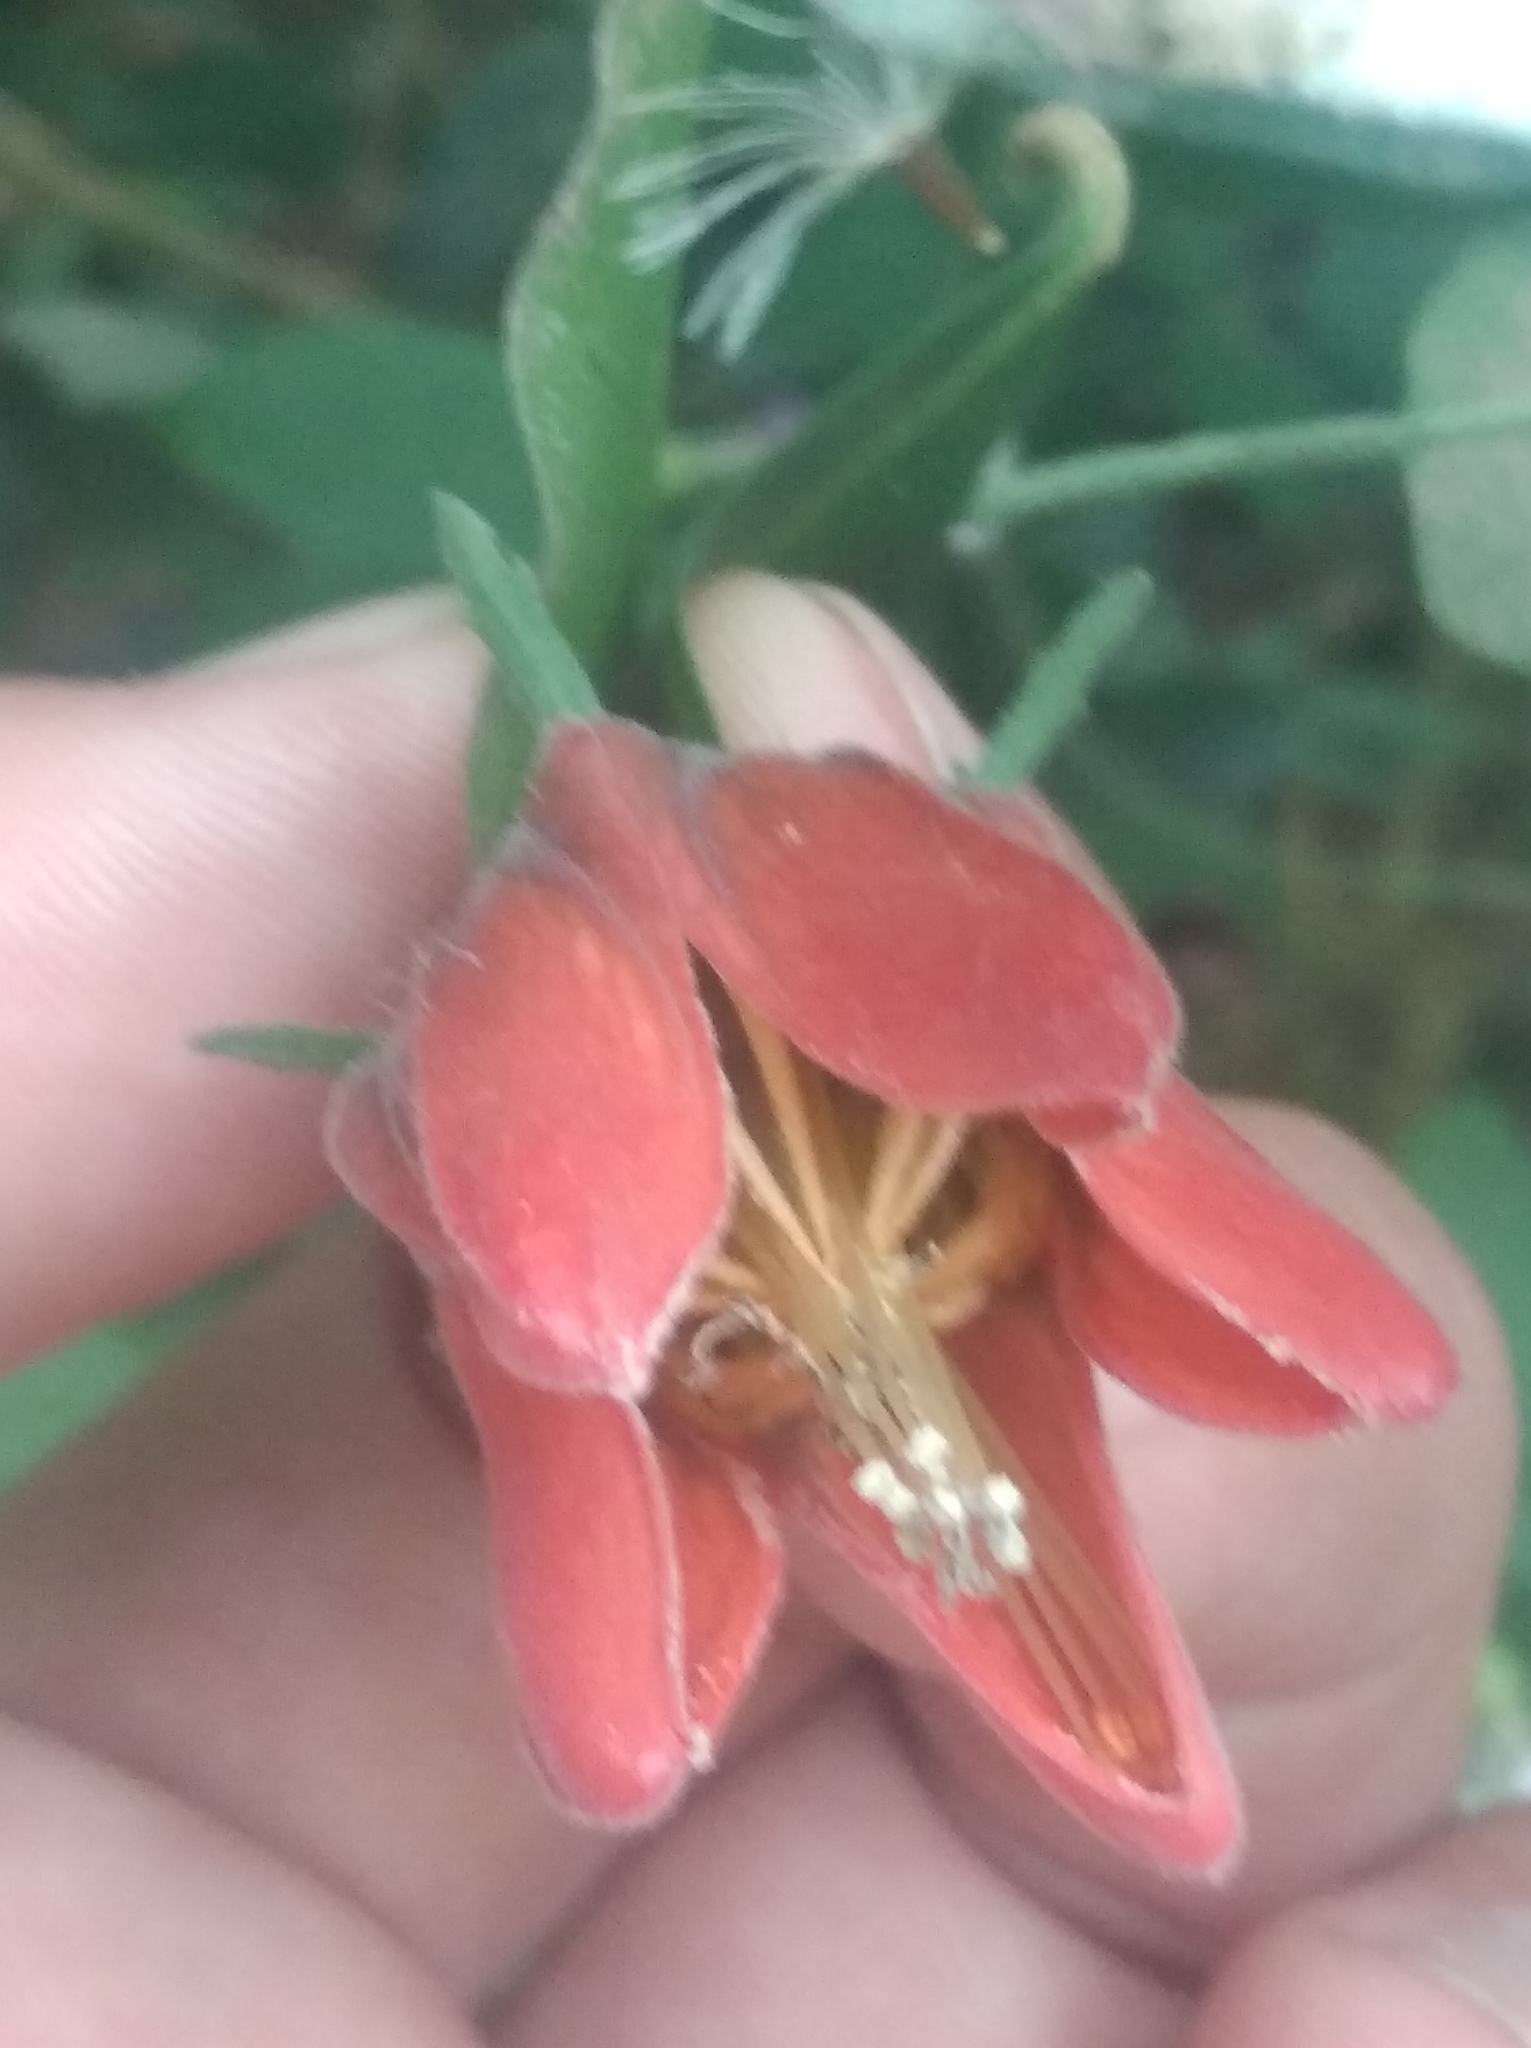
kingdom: Plantae
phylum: Tracheophyta
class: Magnoliopsida
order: Cornales
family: Loasaceae
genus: Caiophora
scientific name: Caiophora hibiscifolia
